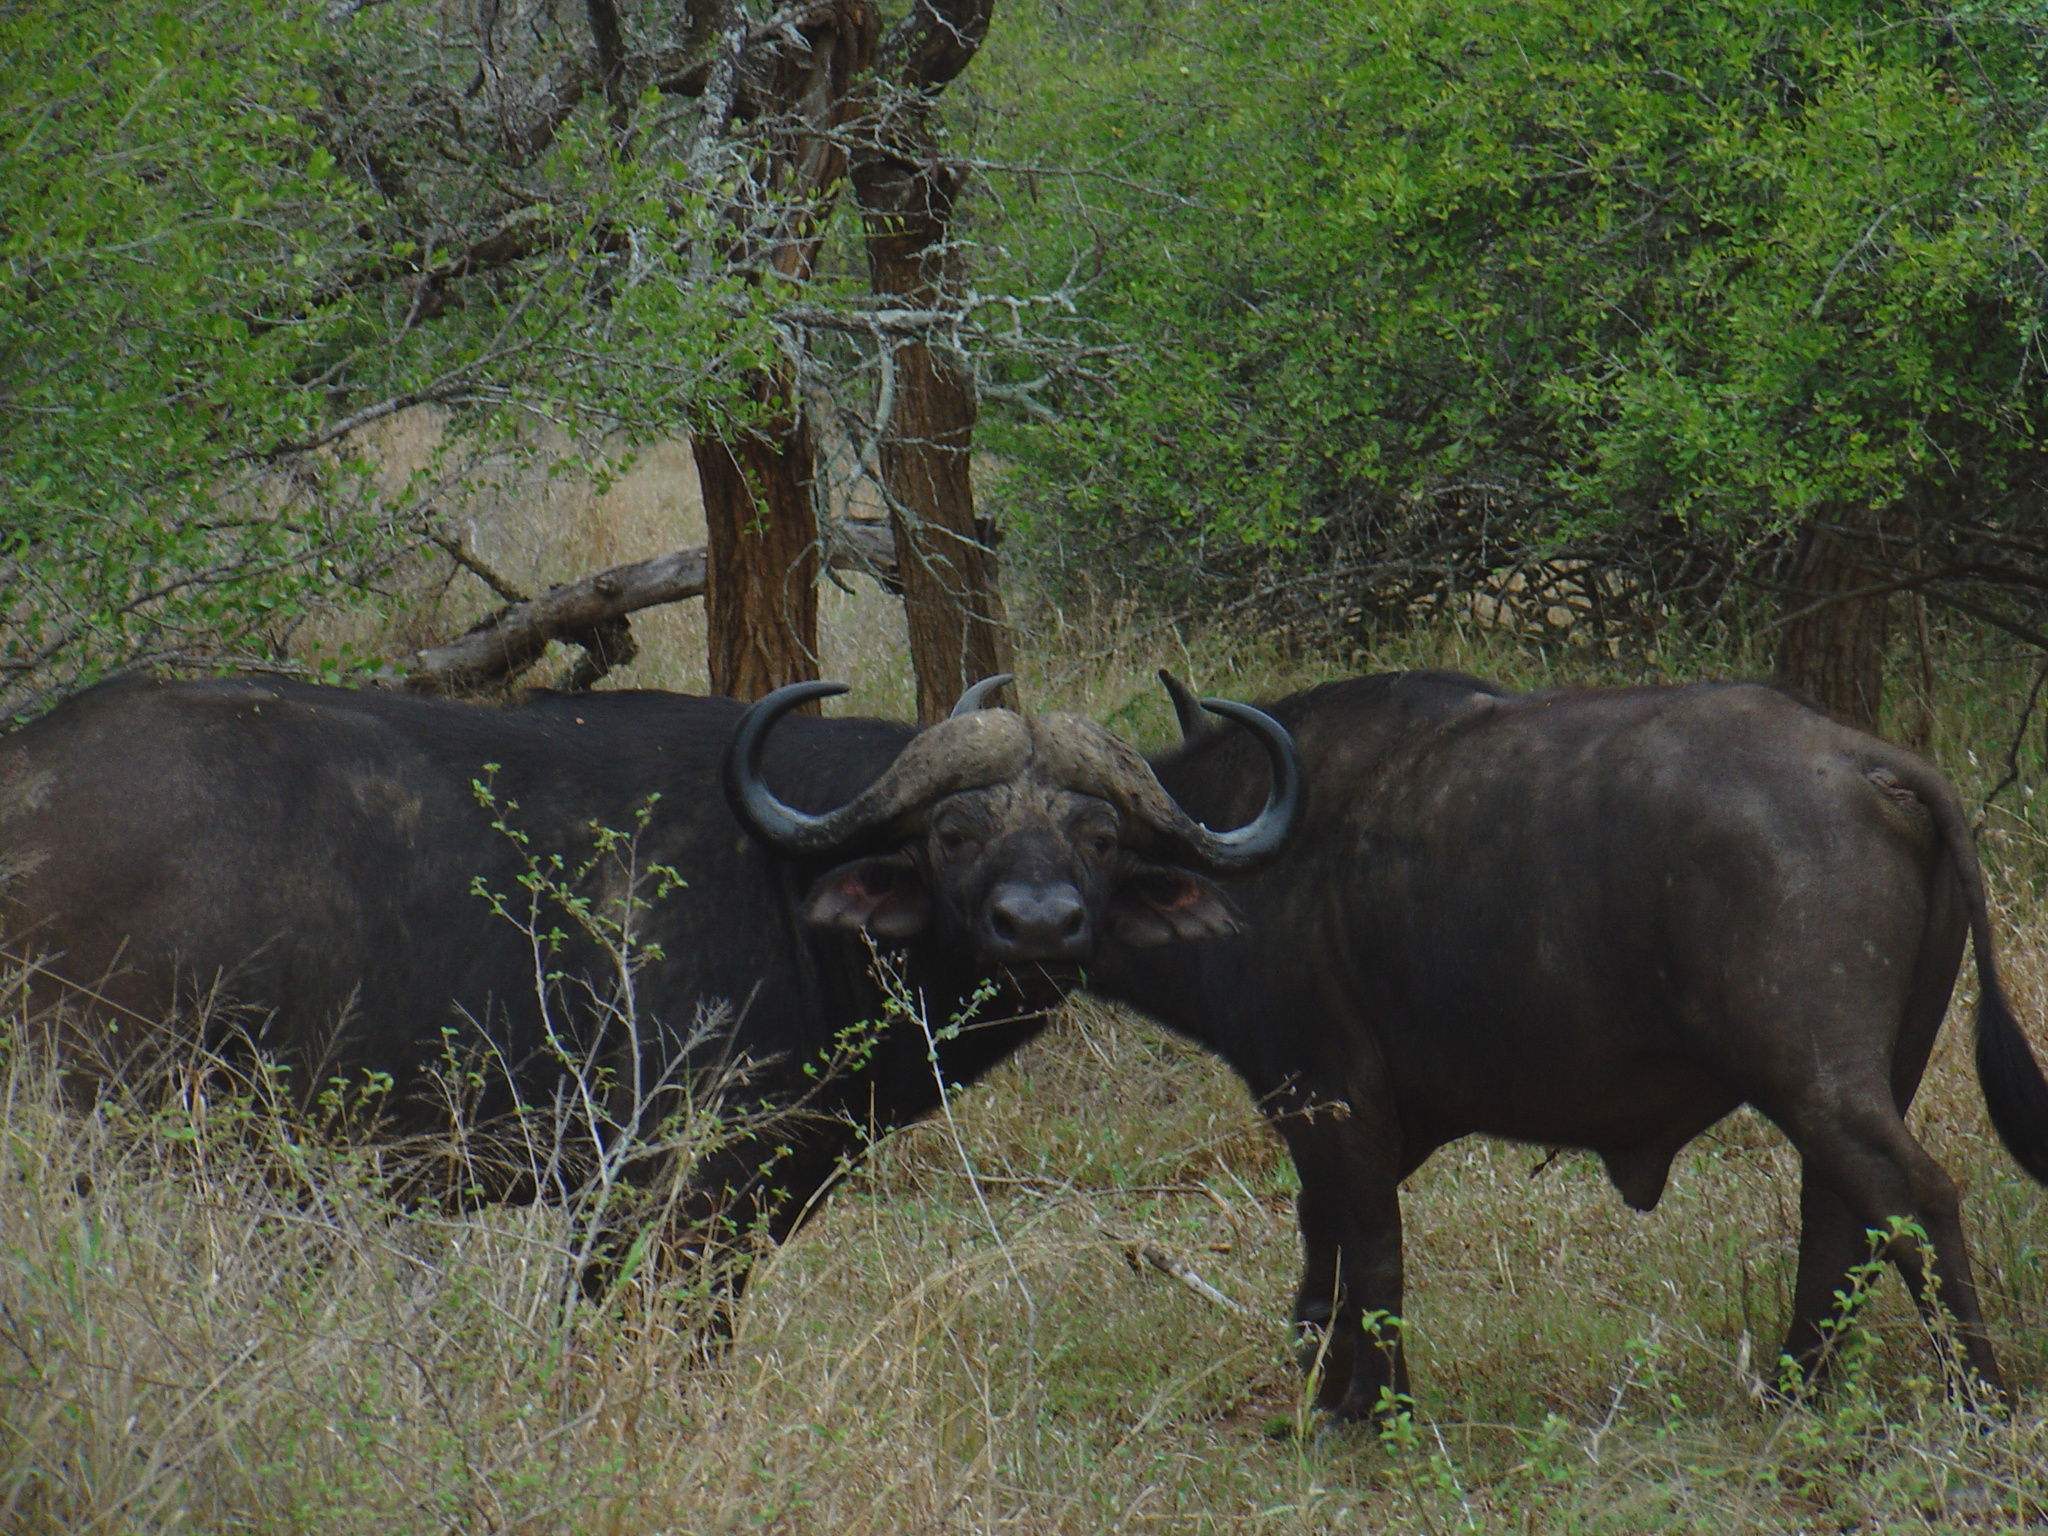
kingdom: Animalia
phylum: Chordata
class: Mammalia
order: Artiodactyla
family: Bovidae
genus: Syncerus
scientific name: Syncerus caffer
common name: African buffalo
